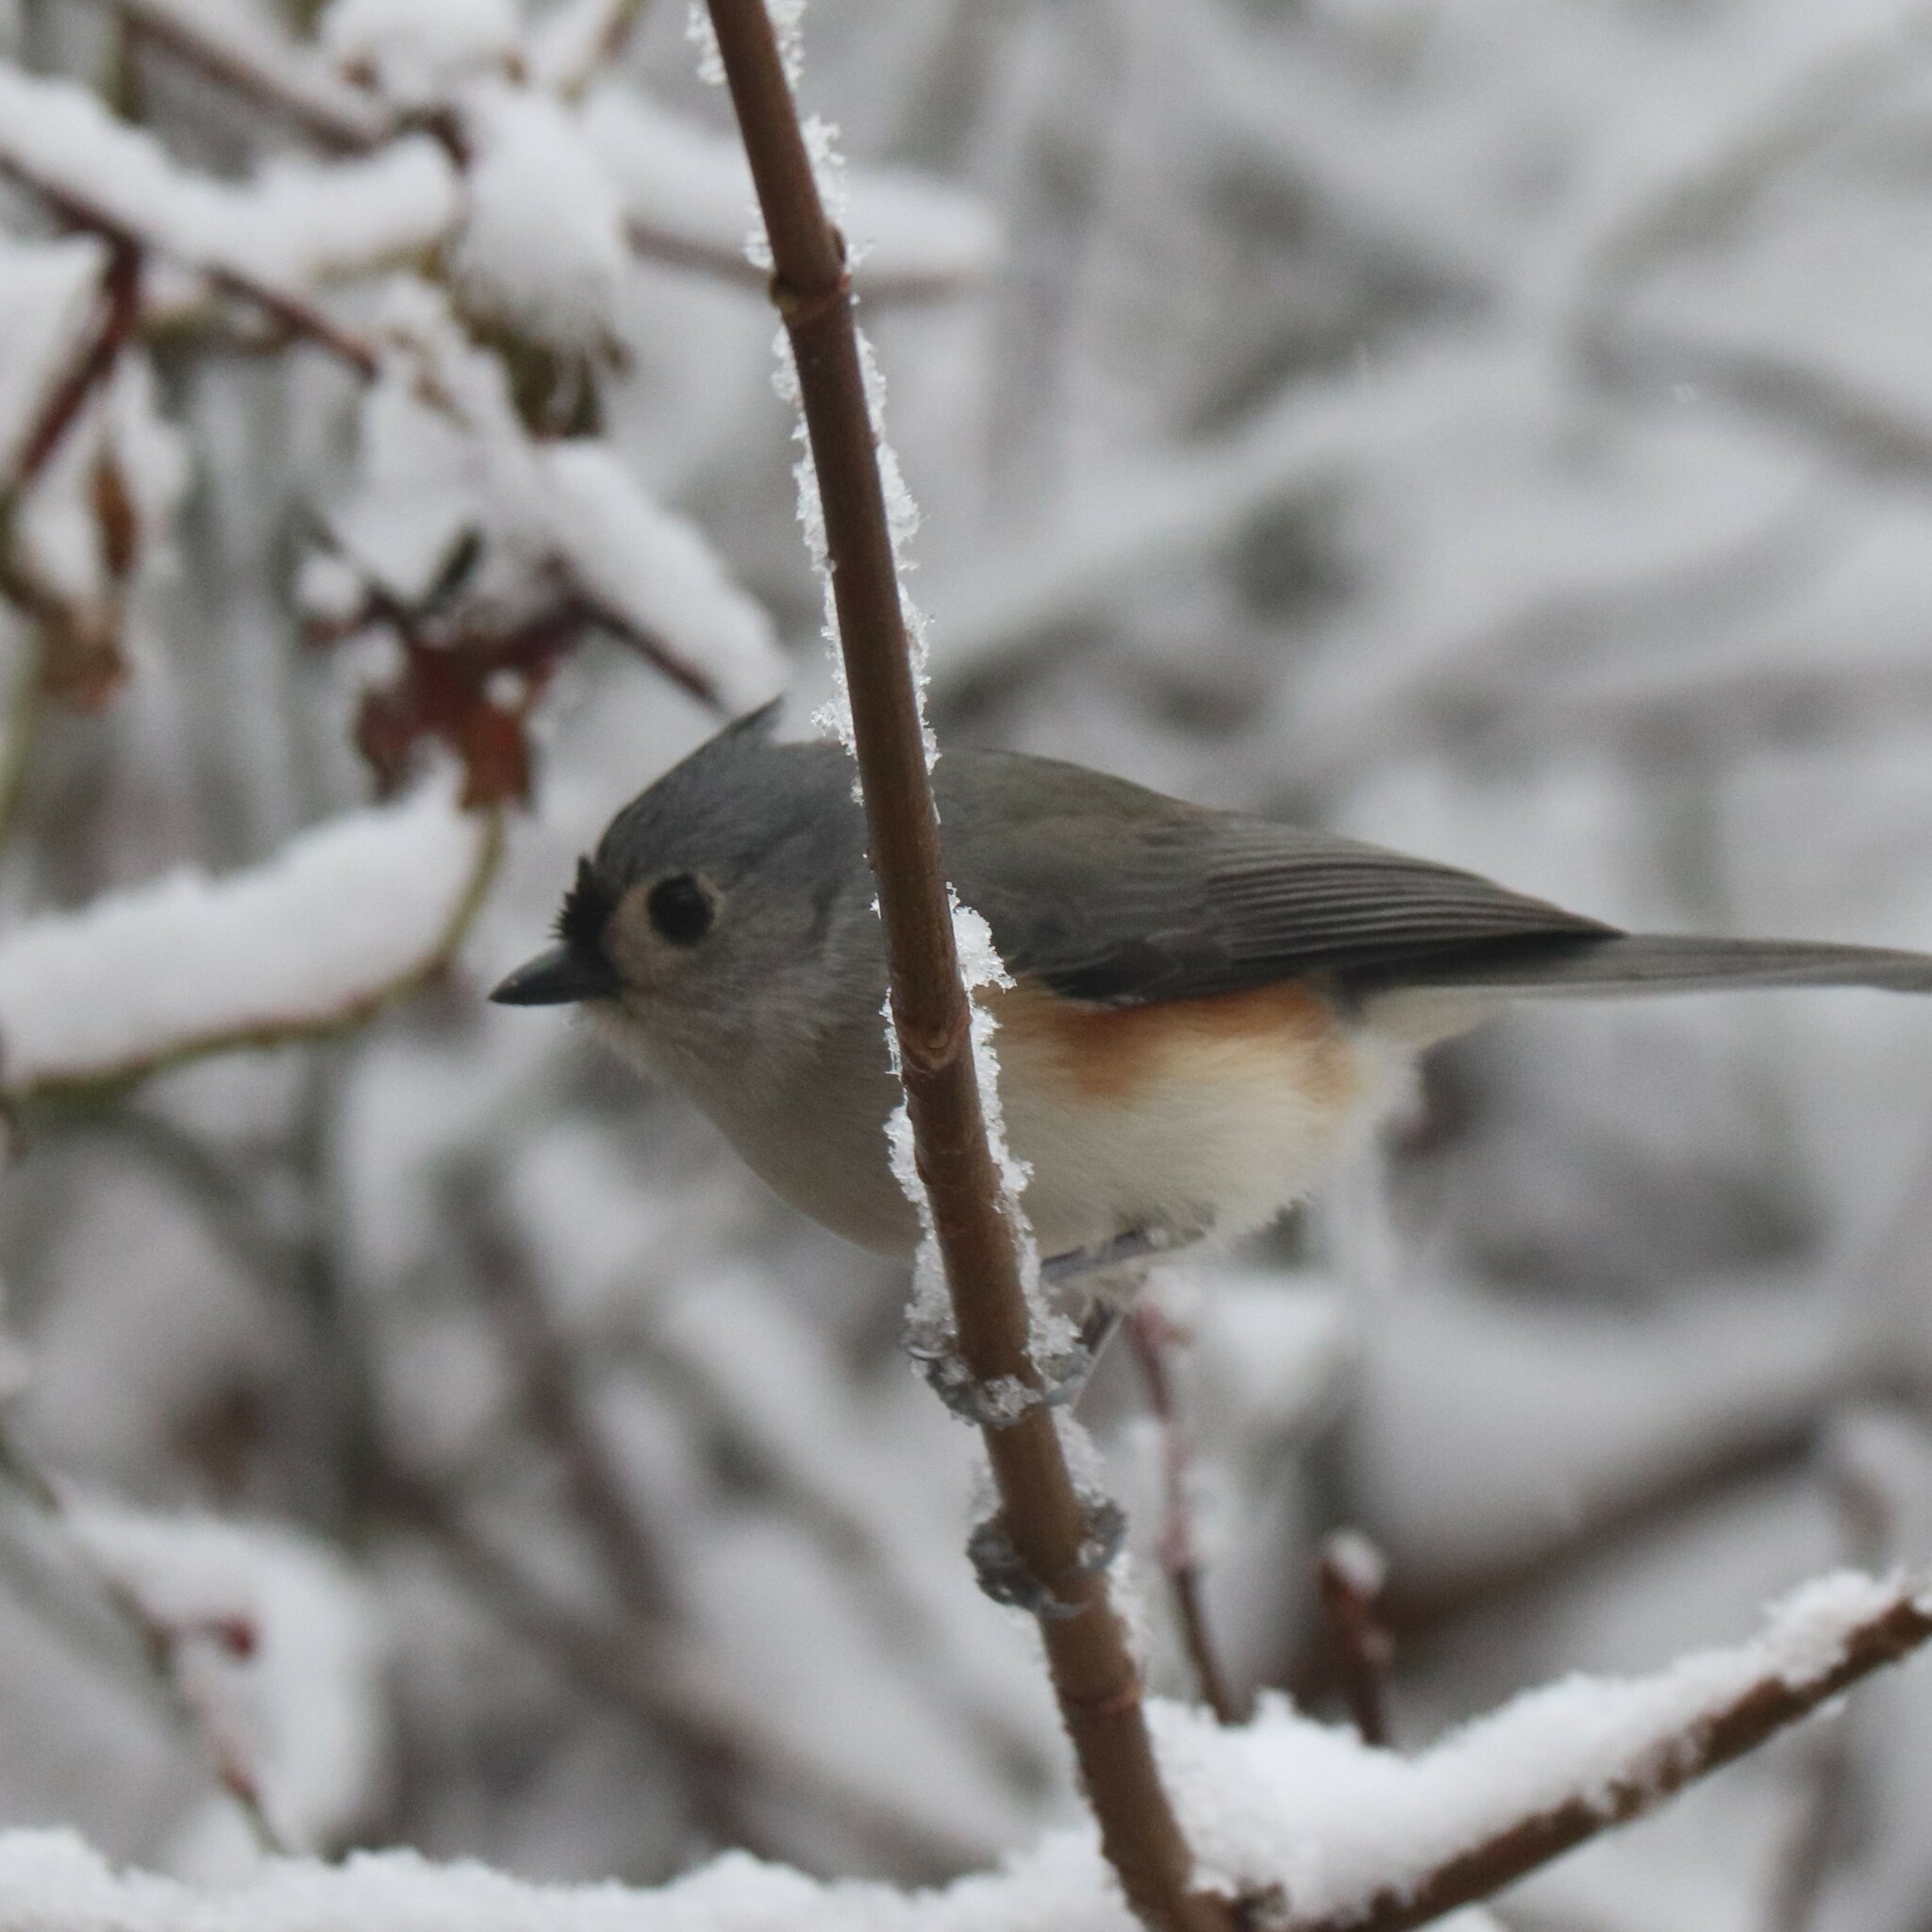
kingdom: Animalia
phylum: Chordata
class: Aves
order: Passeriformes
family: Paridae
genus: Baeolophus
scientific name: Baeolophus bicolor
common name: Tufted titmouse
